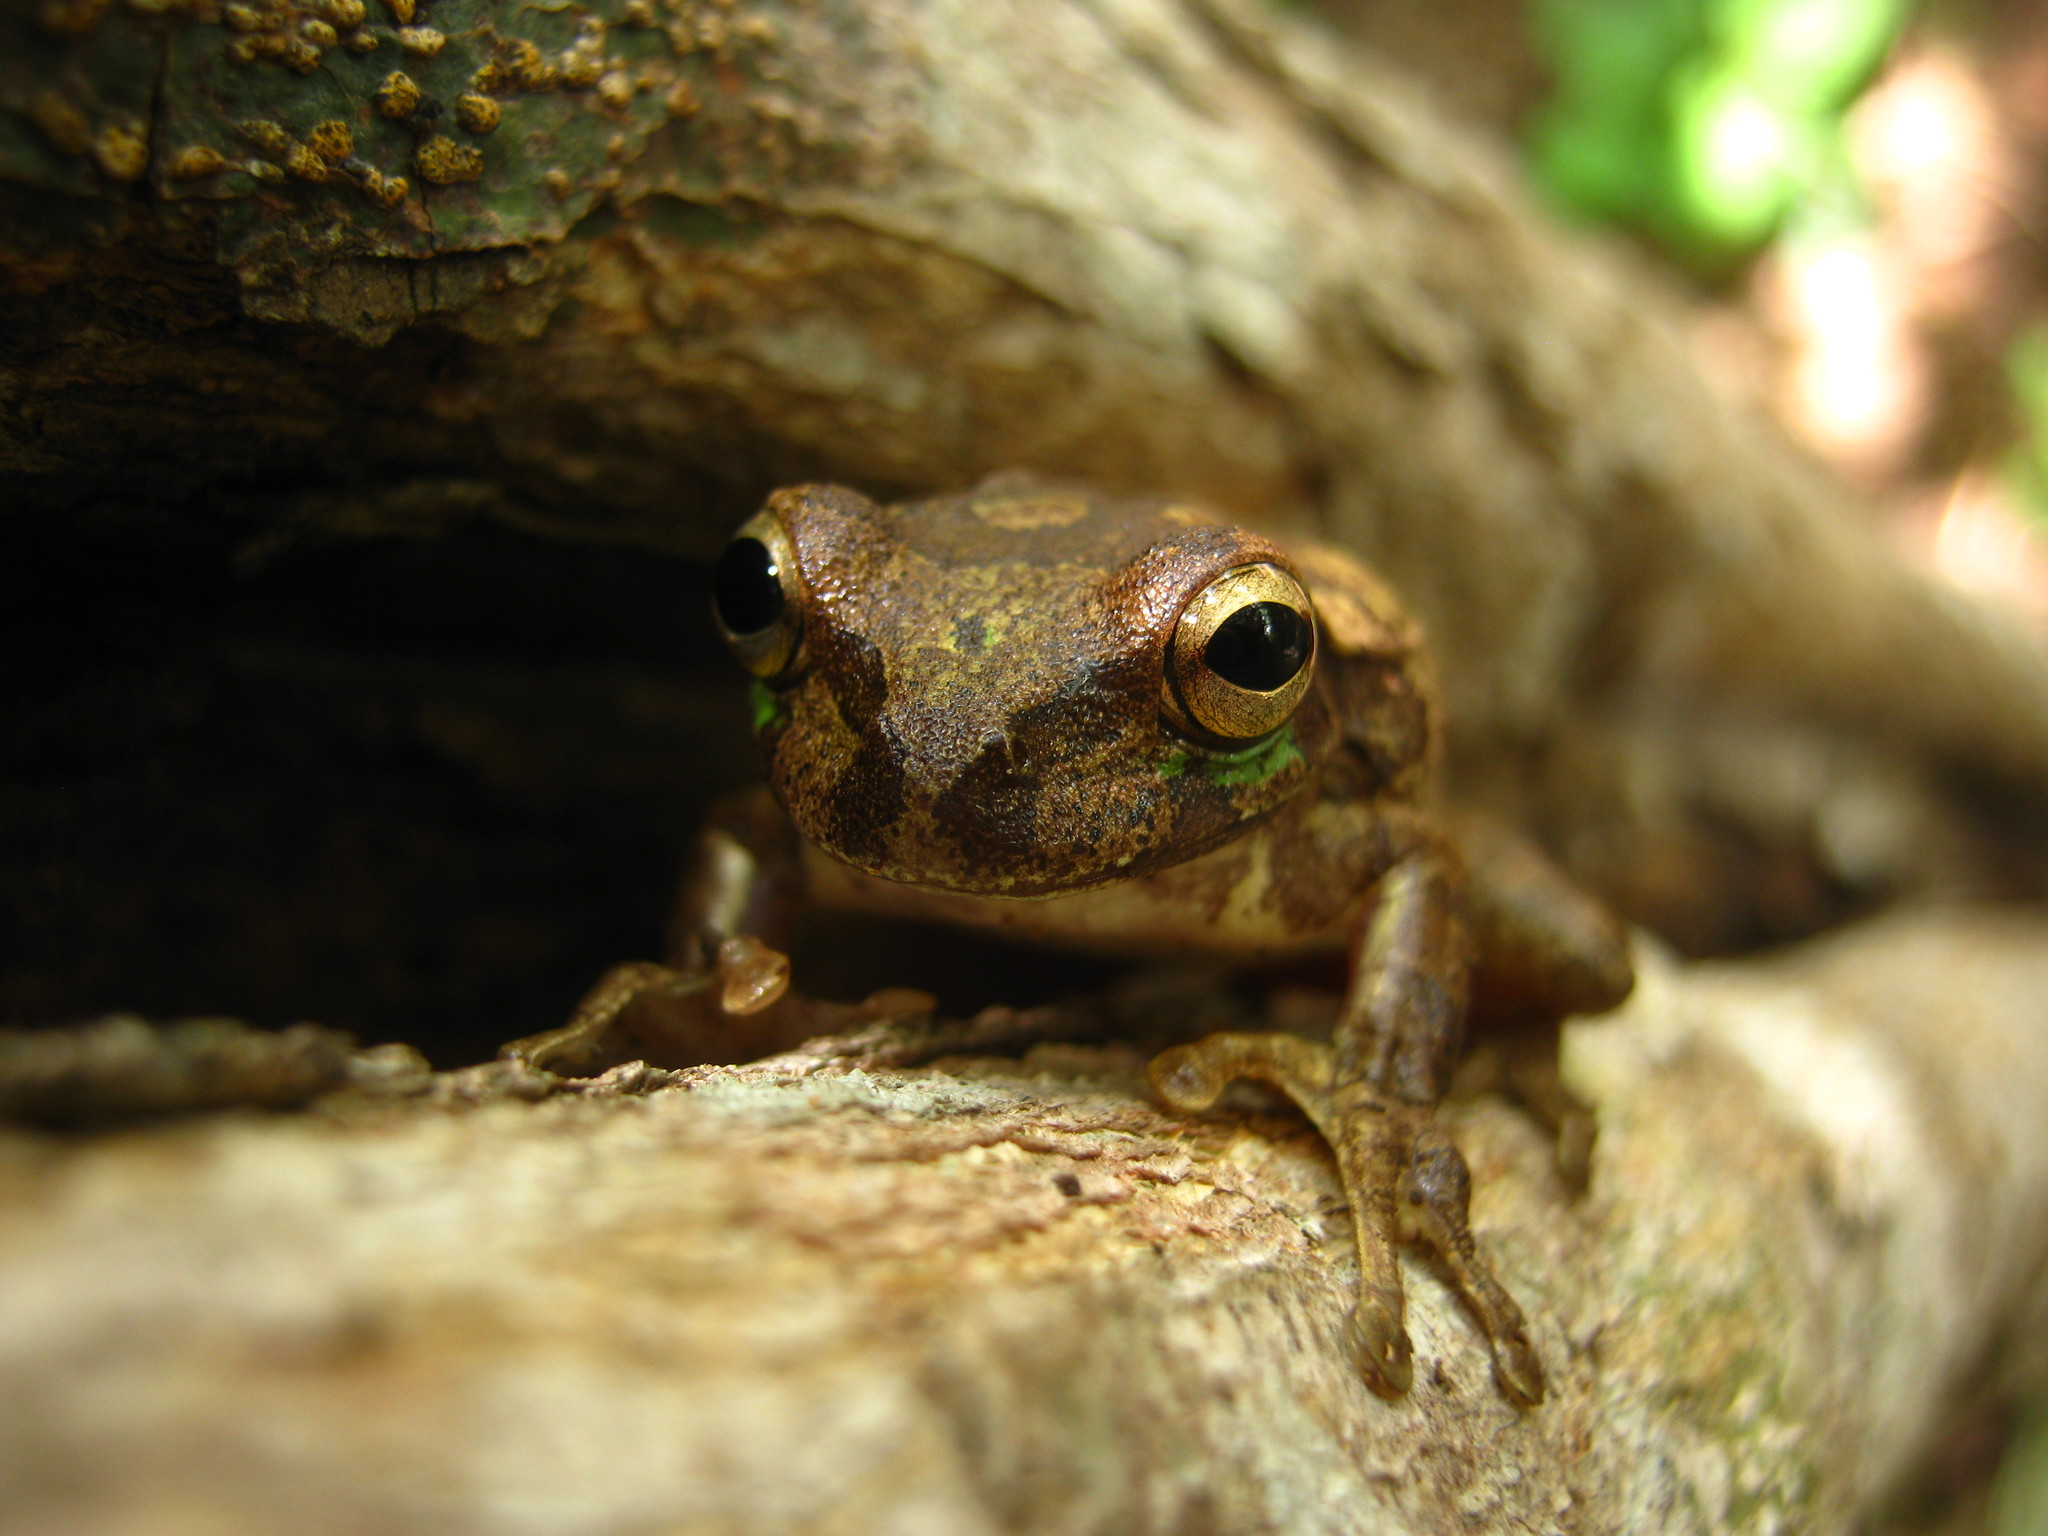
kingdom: Animalia
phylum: Chordata
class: Amphibia
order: Anura
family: Hylidae
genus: Smilisca
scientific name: Smilisca baudinii
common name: Mexican smilisca
